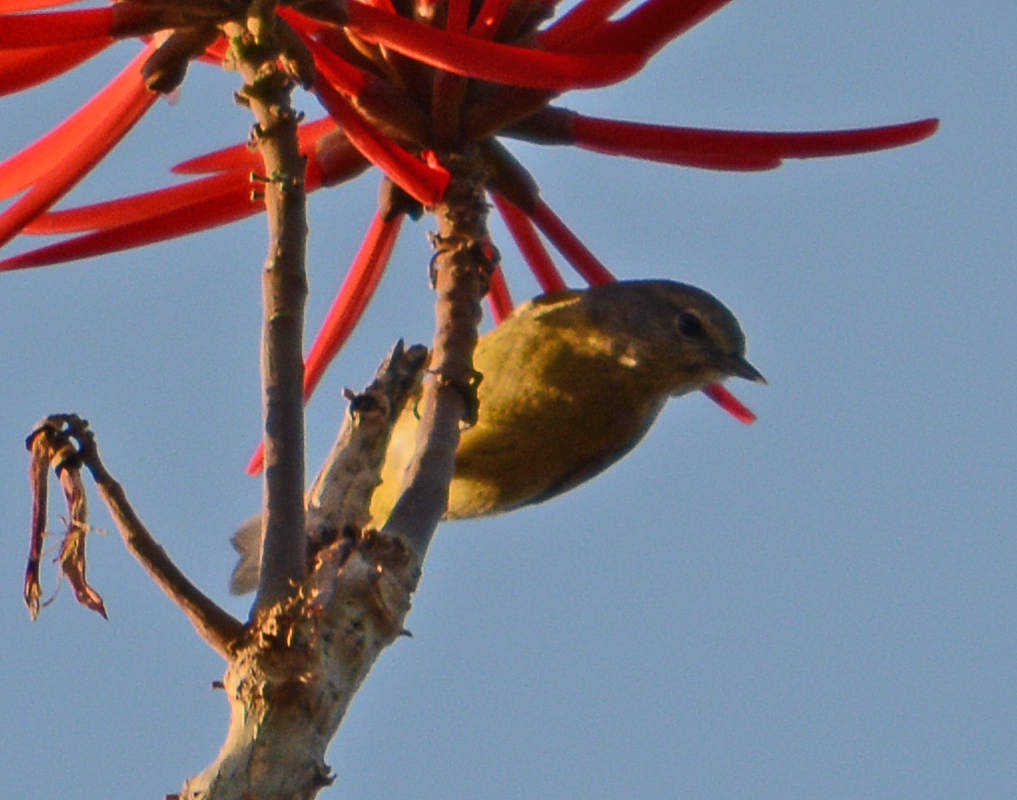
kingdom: Animalia
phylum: Chordata
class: Aves
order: Passeriformes
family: Parulidae
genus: Leiothlypis
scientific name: Leiothlypis celata
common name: Orange-crowned warbler
